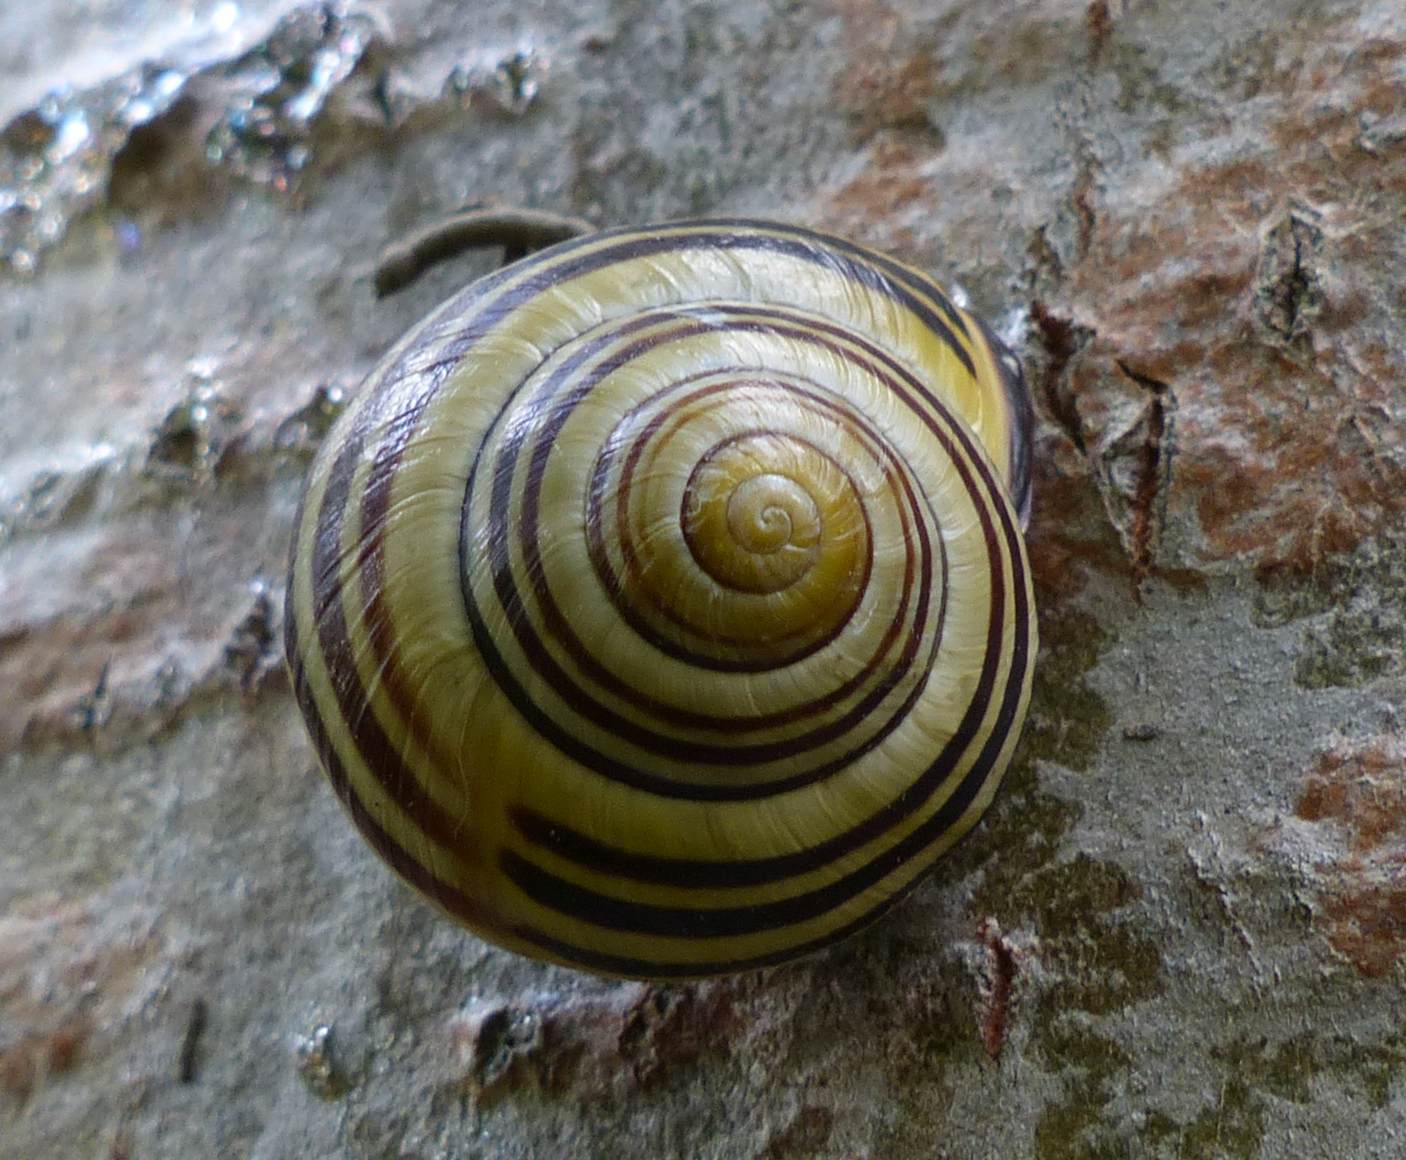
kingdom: Animalia
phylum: Mollusca
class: Gastropoda
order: Stylommatophora
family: Helicidae
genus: Cepaea
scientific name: Cepaea nemoralis
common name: Grovesnail
